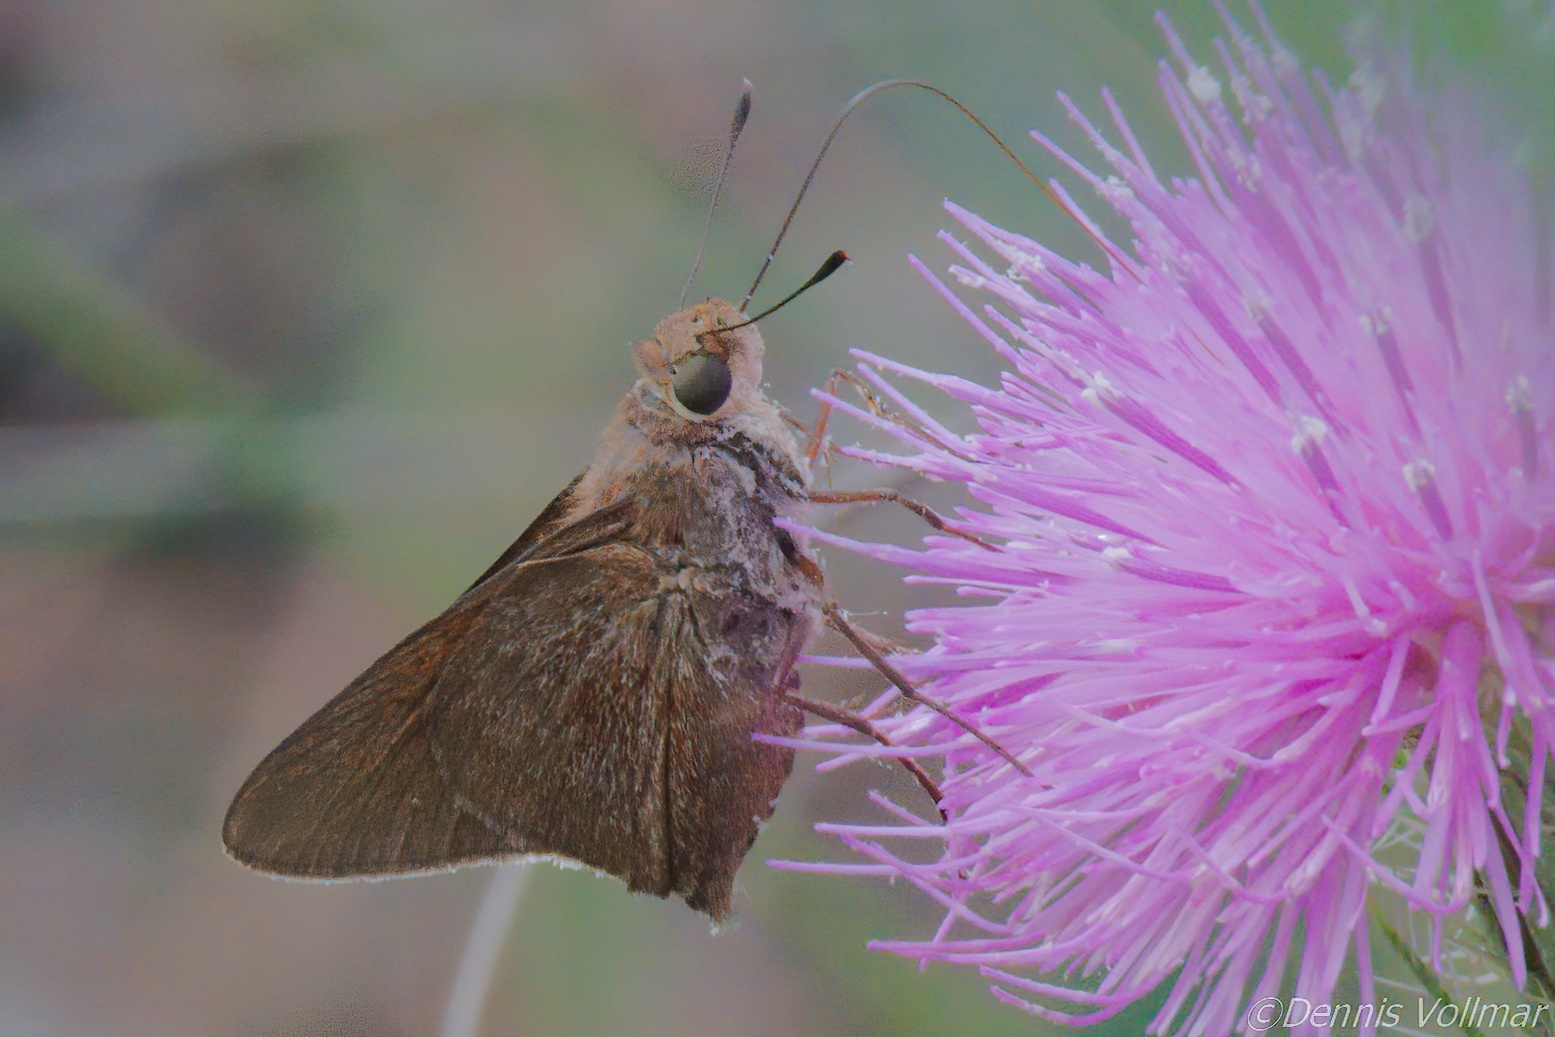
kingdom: Animalia
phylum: Arthropoda
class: Insecta
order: Lepidoptera
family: Hesperiidae
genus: Asbolis
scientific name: Asbolis capucinus
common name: Monk skipper
